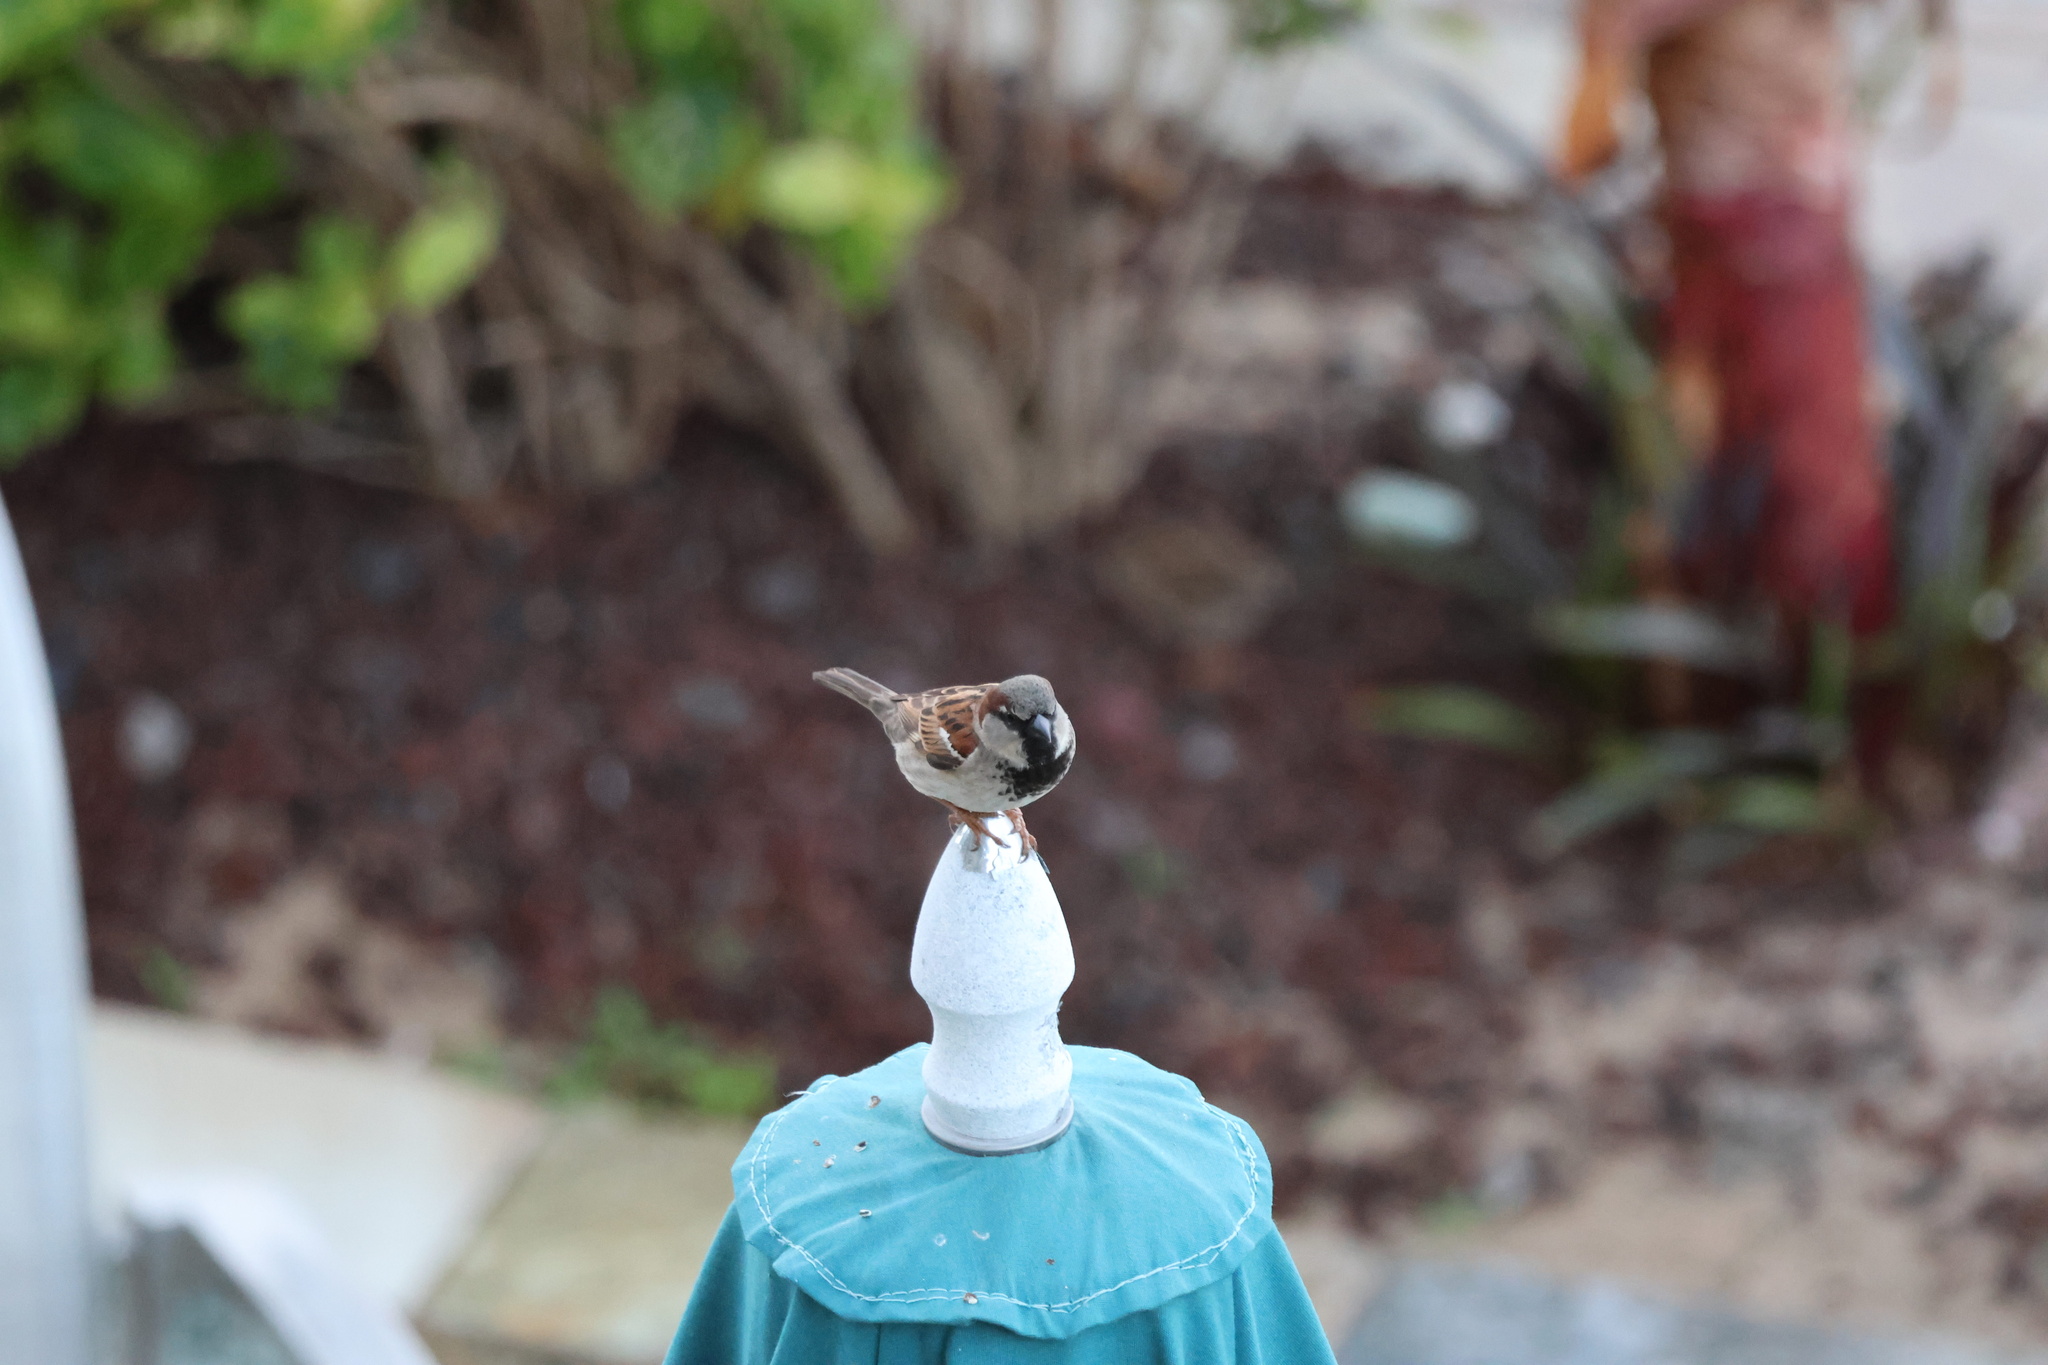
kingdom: Animalia
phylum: Chordata
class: Aves
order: Passeriformes
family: Passeridae
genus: Passer
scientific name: Passer domesticus
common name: House sparrow
